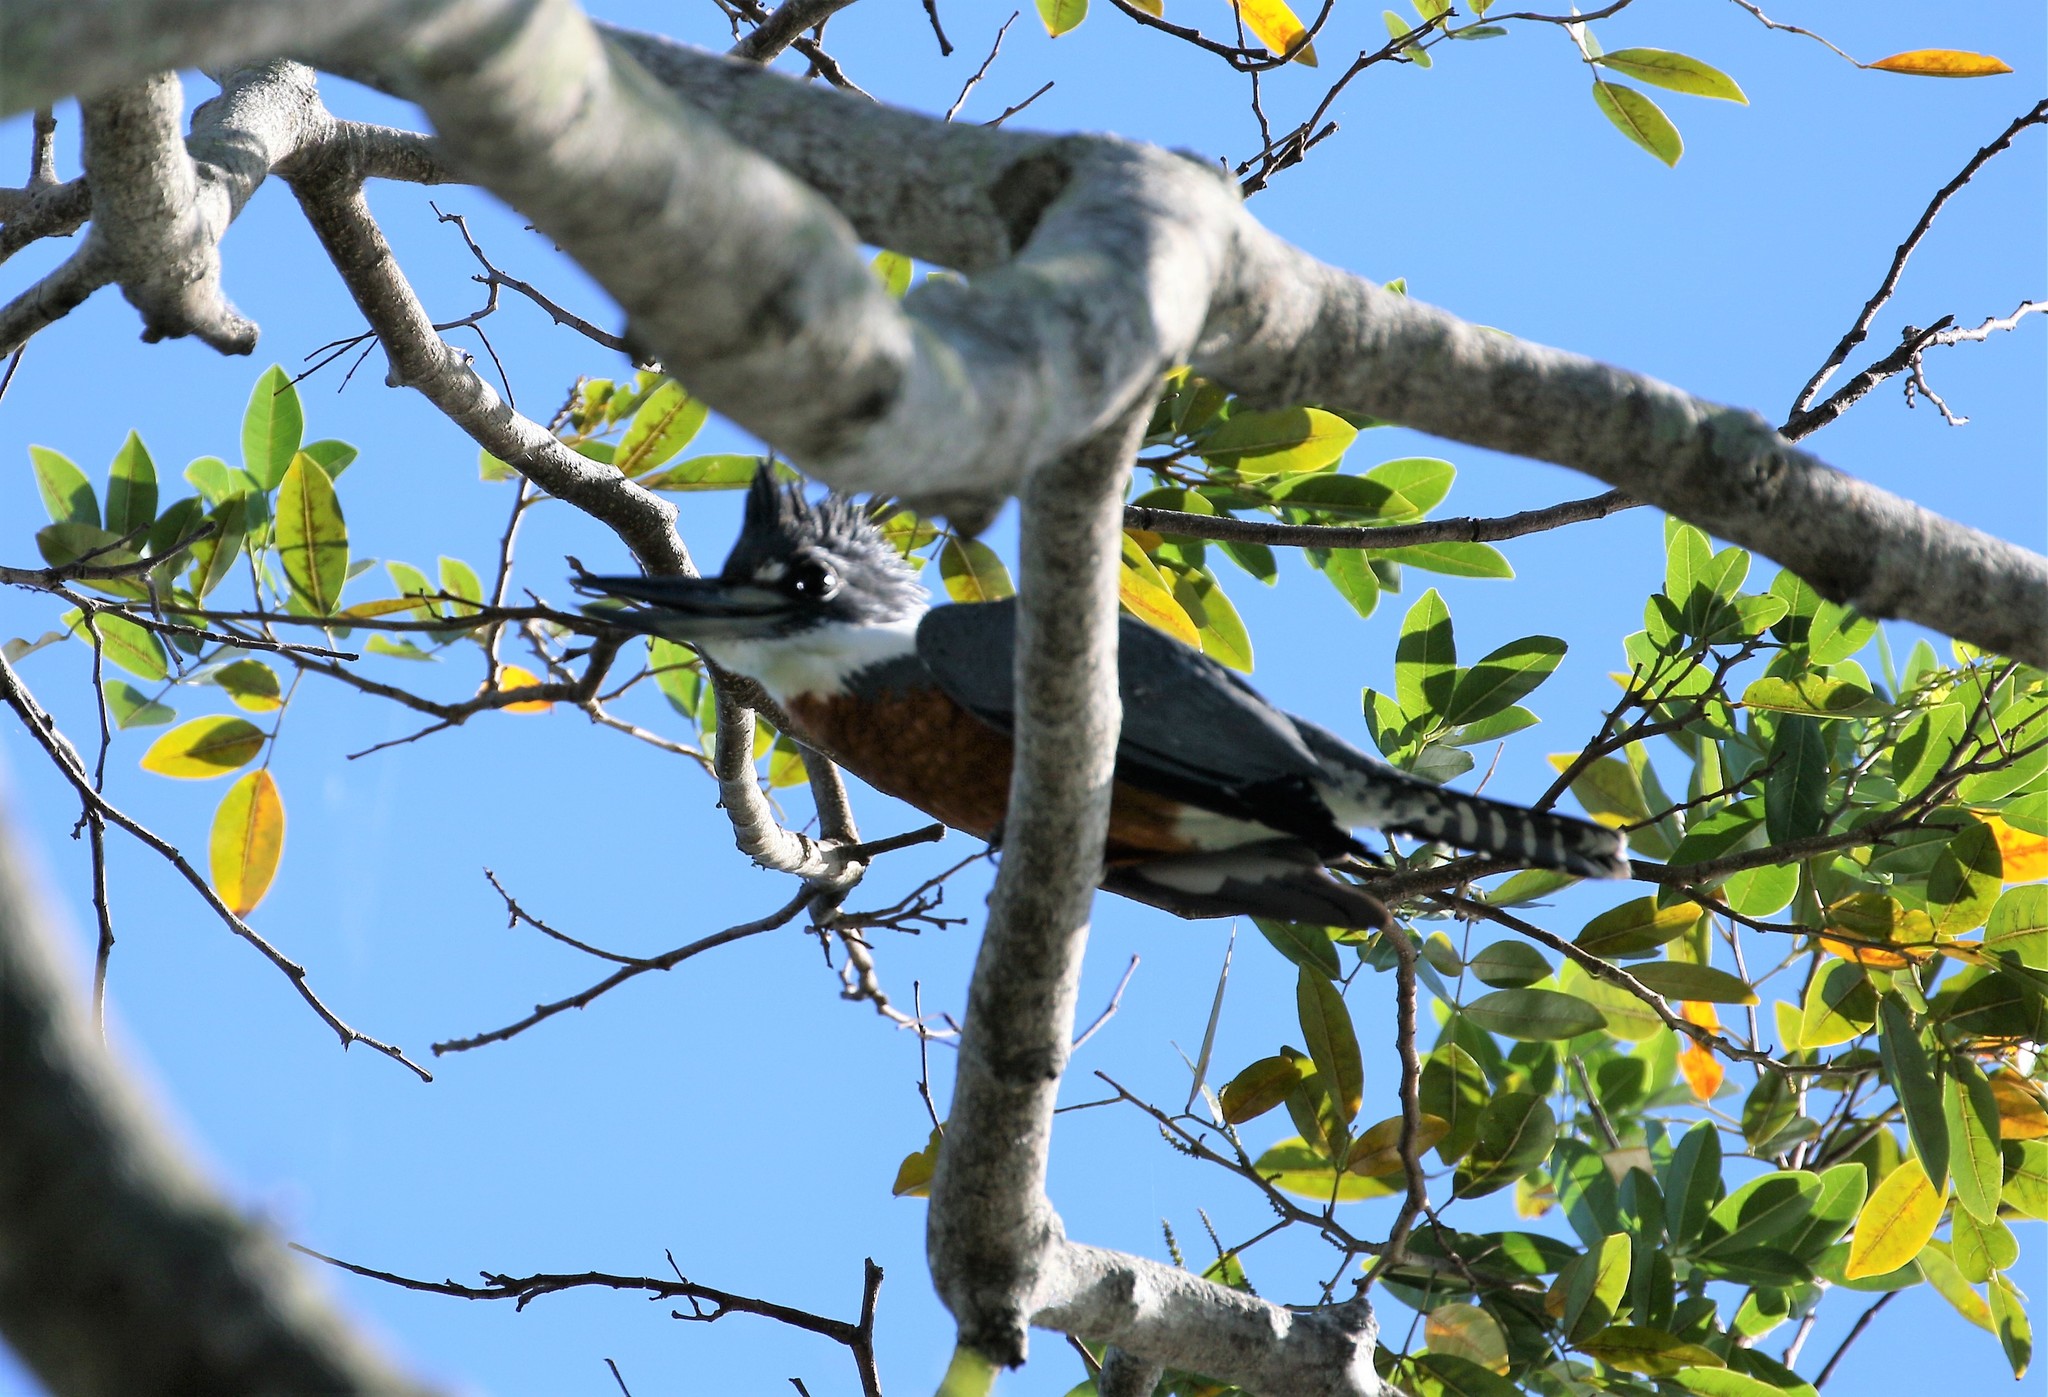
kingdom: Animalia
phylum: Chordata
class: Aves
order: Coraciiformes
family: Alcedinidae
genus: Megaceryle
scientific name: Megaceryle torquata
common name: Ringed kingfisher
